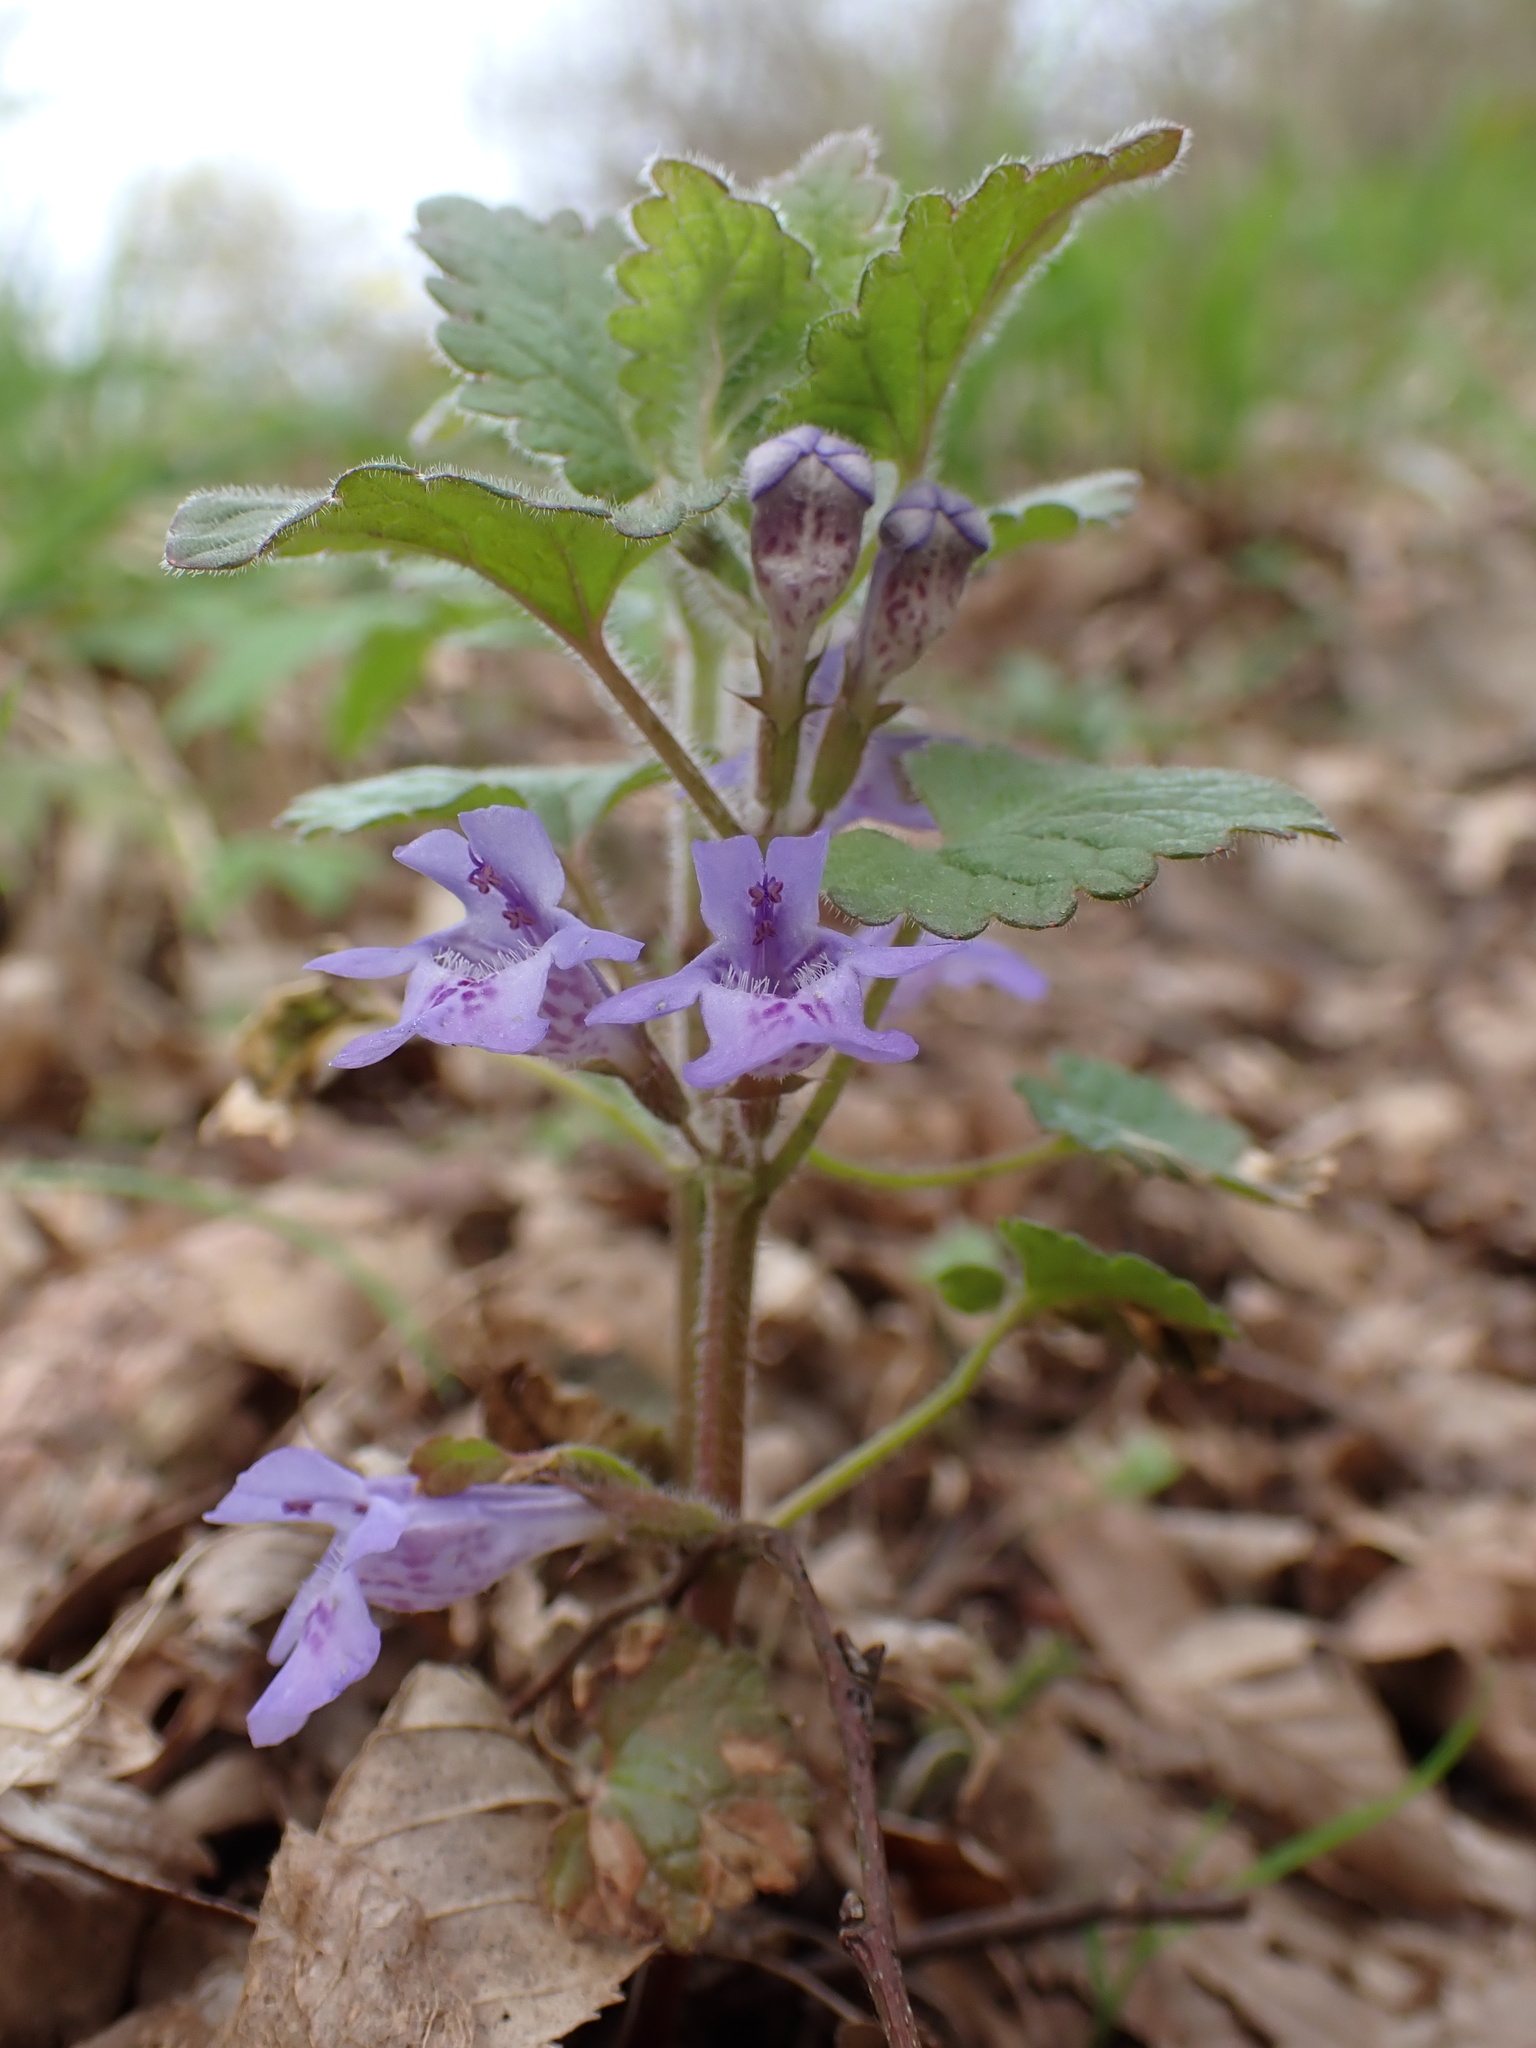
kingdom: Plantae
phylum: Tracheophyta
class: Magnoliopsida
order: Lamiales
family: Lamiaceae
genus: Glechoma
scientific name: Glechoma hederacea
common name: Ground ivy
